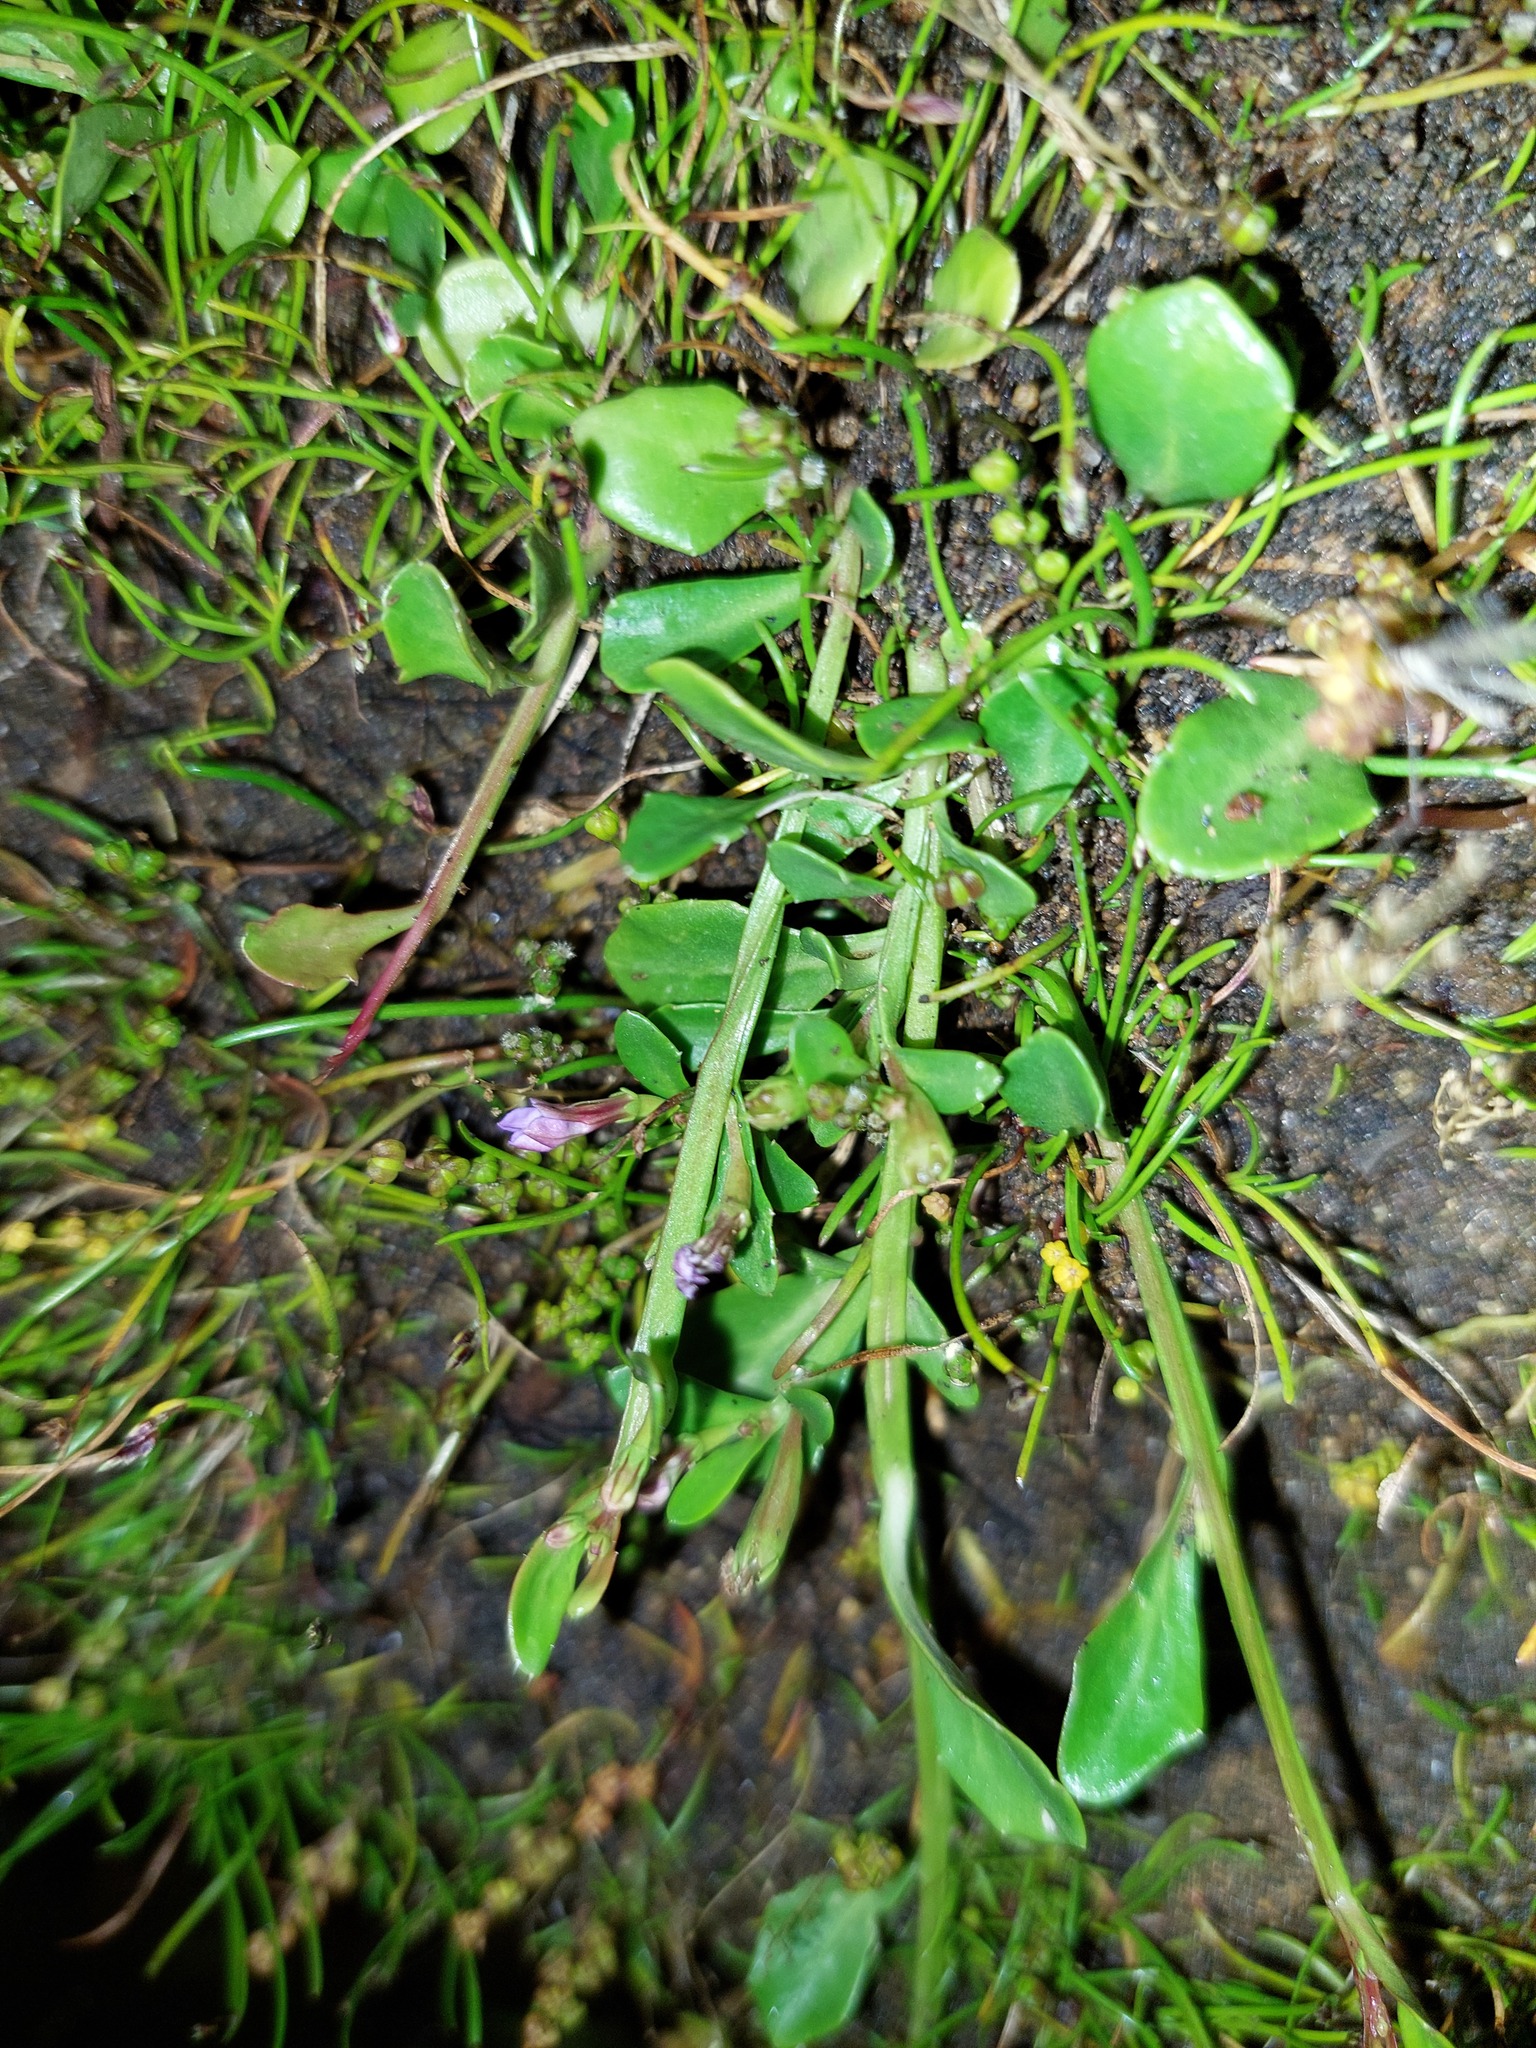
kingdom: Plantae
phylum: Tracheophyta
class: Magnoliopsida
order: Asterales
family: Campanulaceae
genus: Lobelia
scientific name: Lobelia anceps
